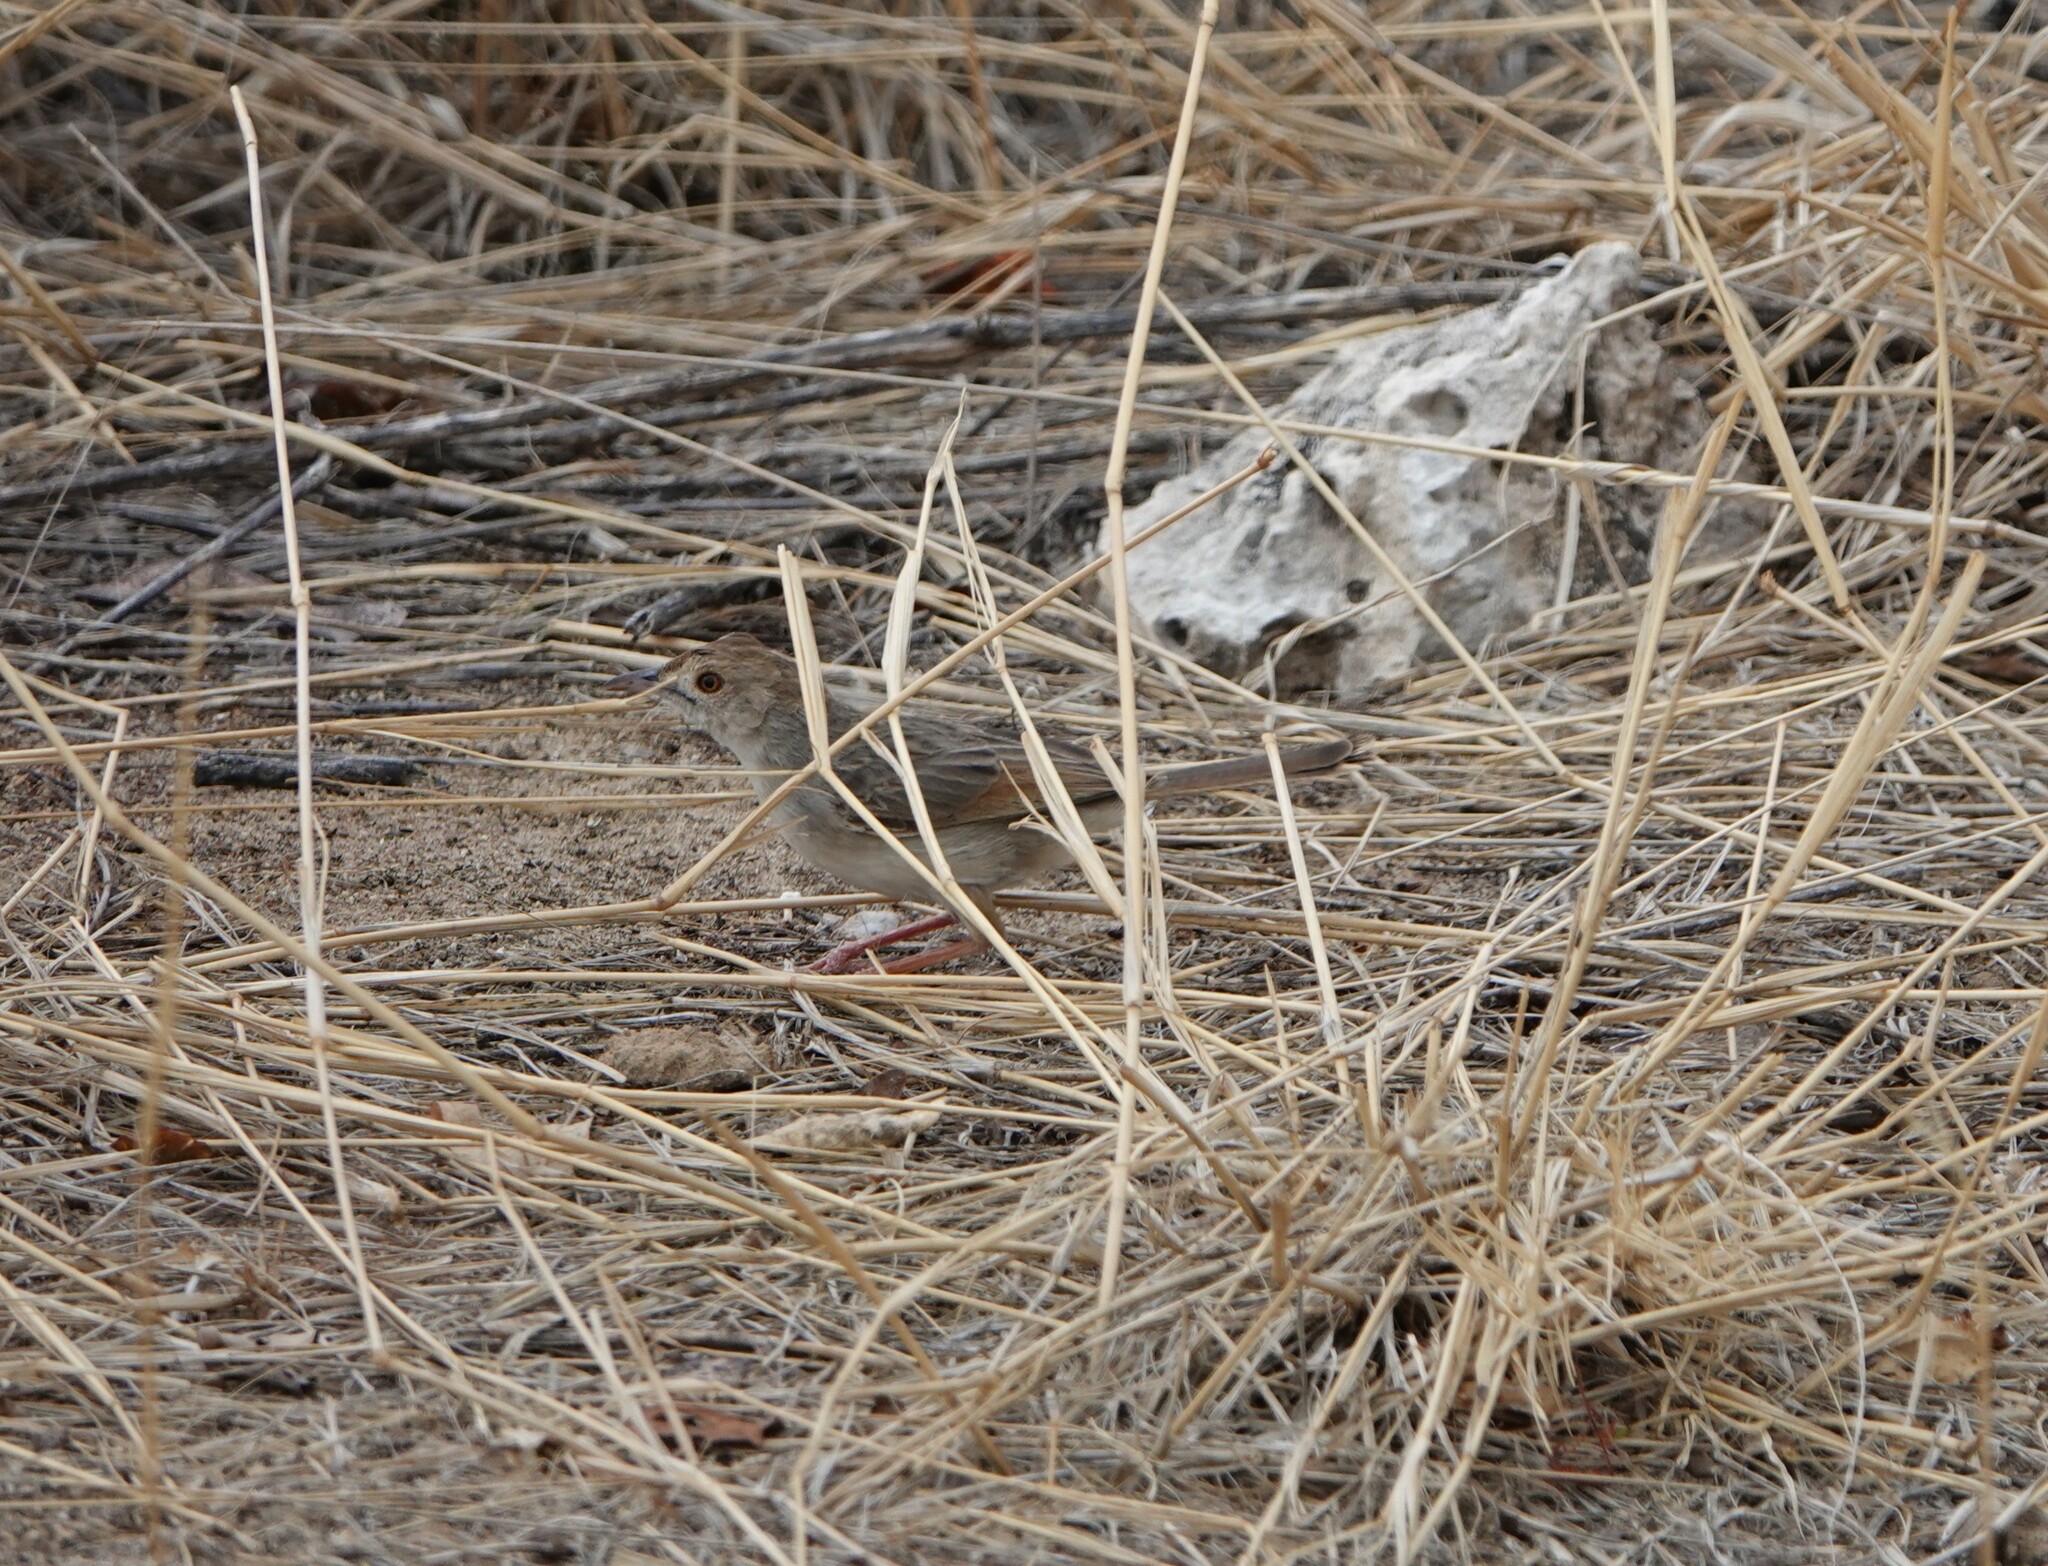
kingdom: Animalia
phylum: Chordata
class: Aves
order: Passeriformes
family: Cisticolidae
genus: Cisticola
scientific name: Cisticola chiniana
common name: Rattling cisticola
